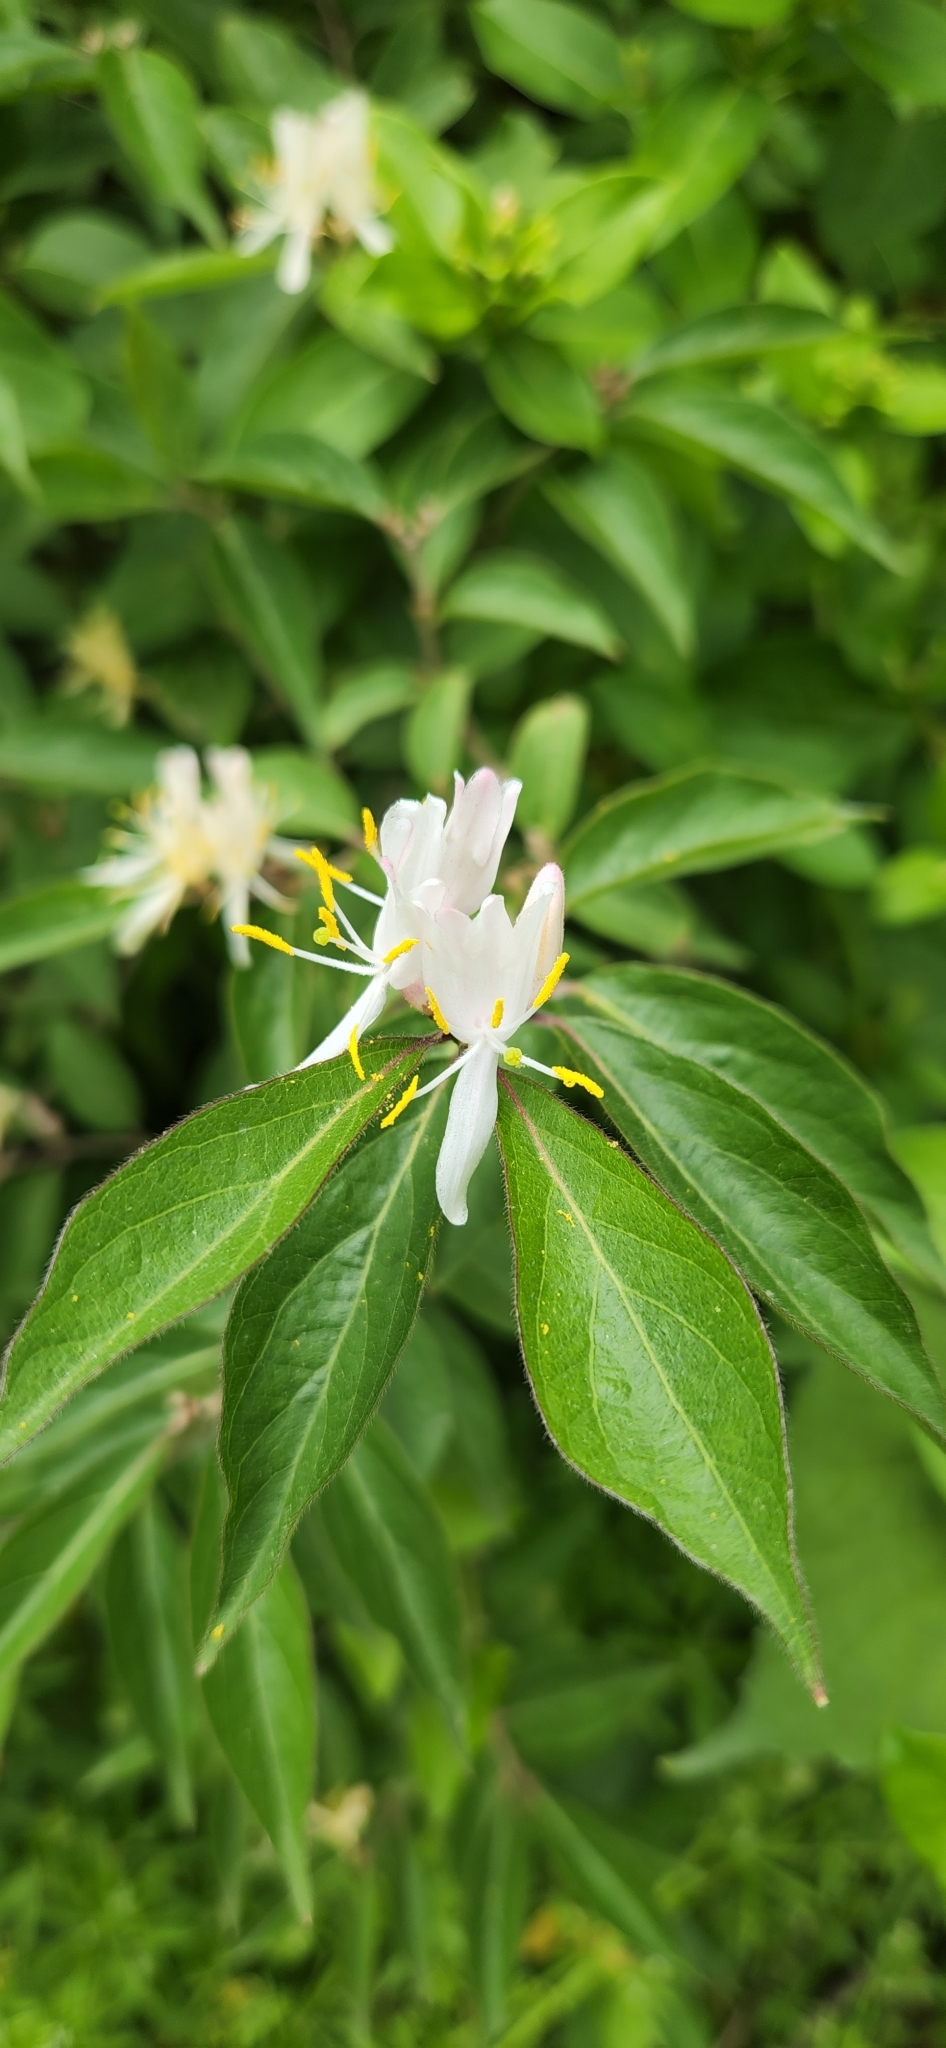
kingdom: Plantae
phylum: Tracheophyta
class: Magnoliopsida
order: Dipsacales
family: Caprifoliaceae
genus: Lonicera
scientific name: Lonicera maackii
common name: Amur honeysuckle
